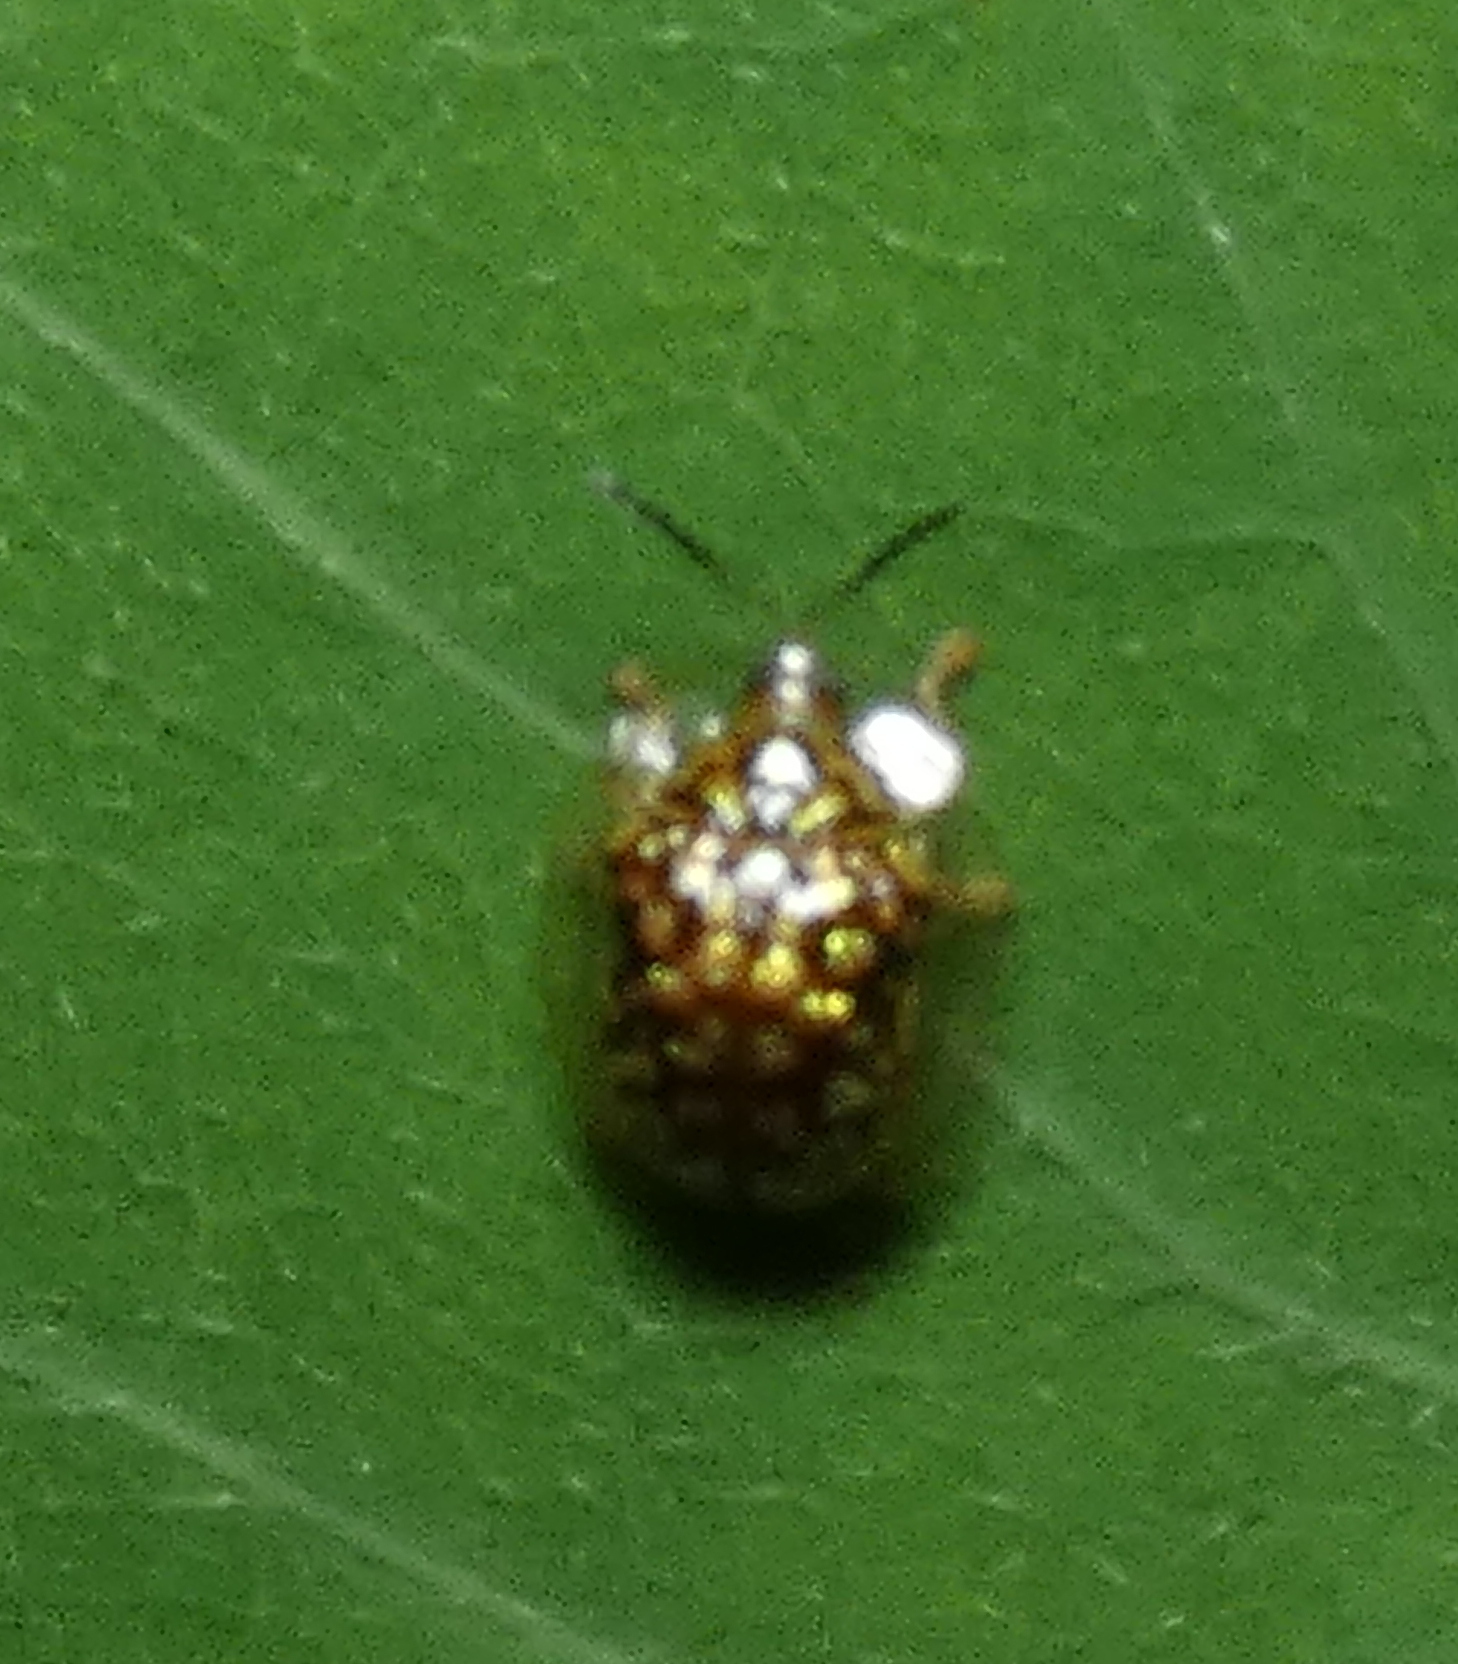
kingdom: Animalia
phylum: Arthropoda
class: Insecta
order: Coleoptera
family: Chrysomelidae
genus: Cteisella
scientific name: Cteisella guttigera
